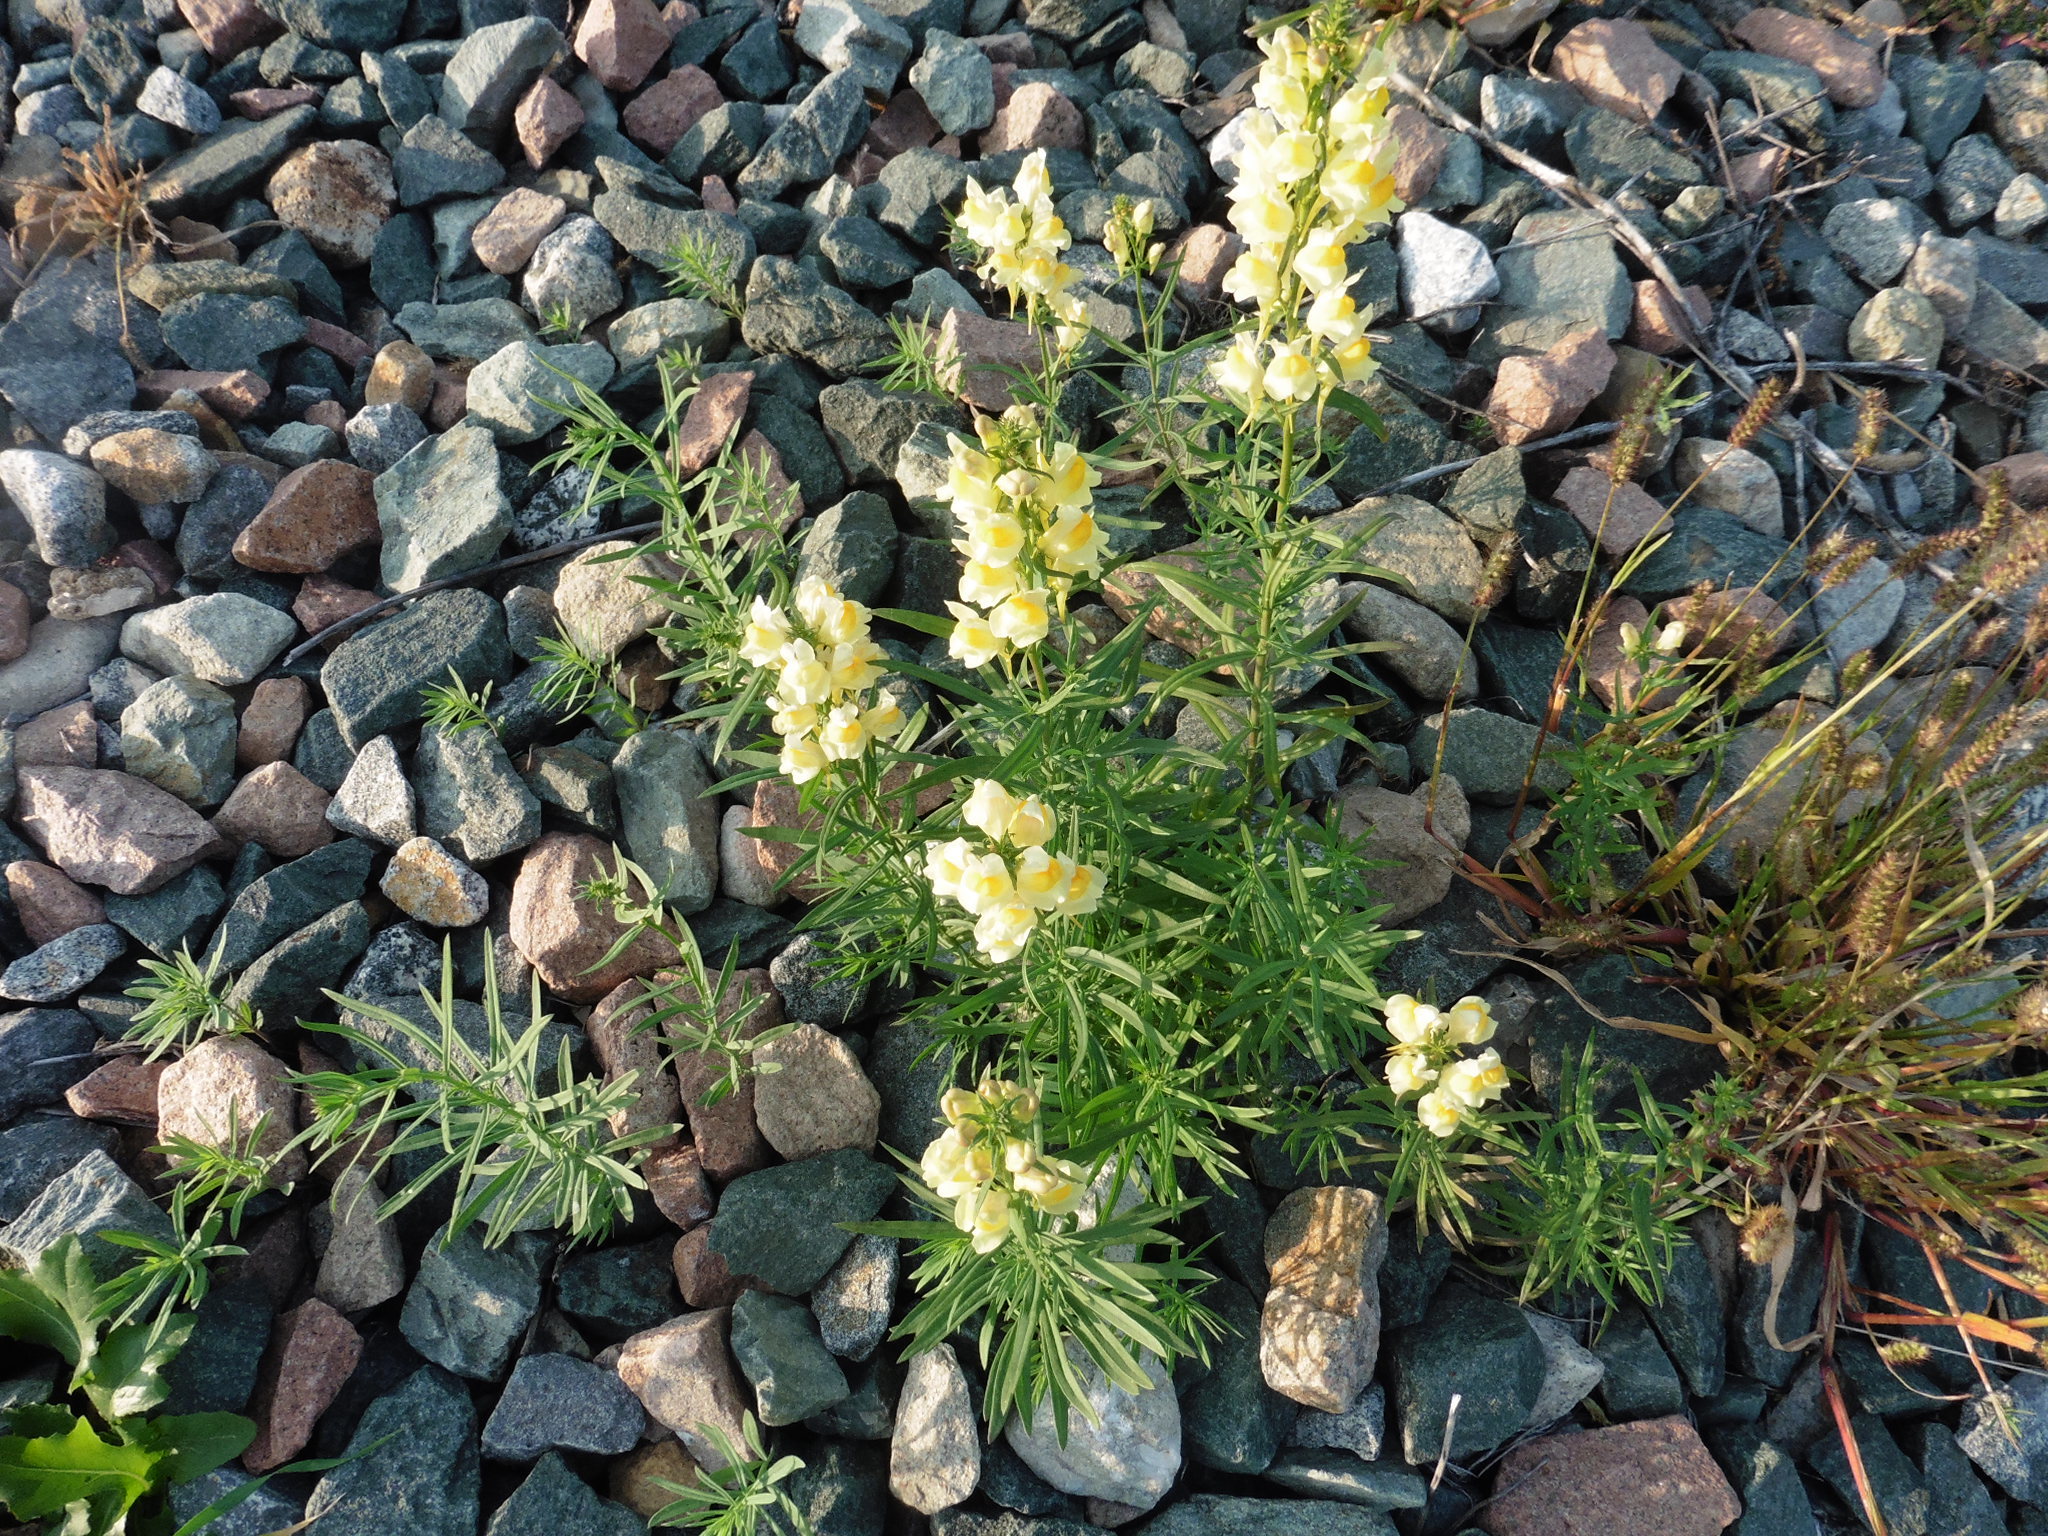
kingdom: Plantae
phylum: Tracheophyta
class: Magnoliopsida
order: Lamiales
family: Plantaginaceae
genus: Linaria
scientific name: Linaria vulgaris
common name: Butter and eggs
